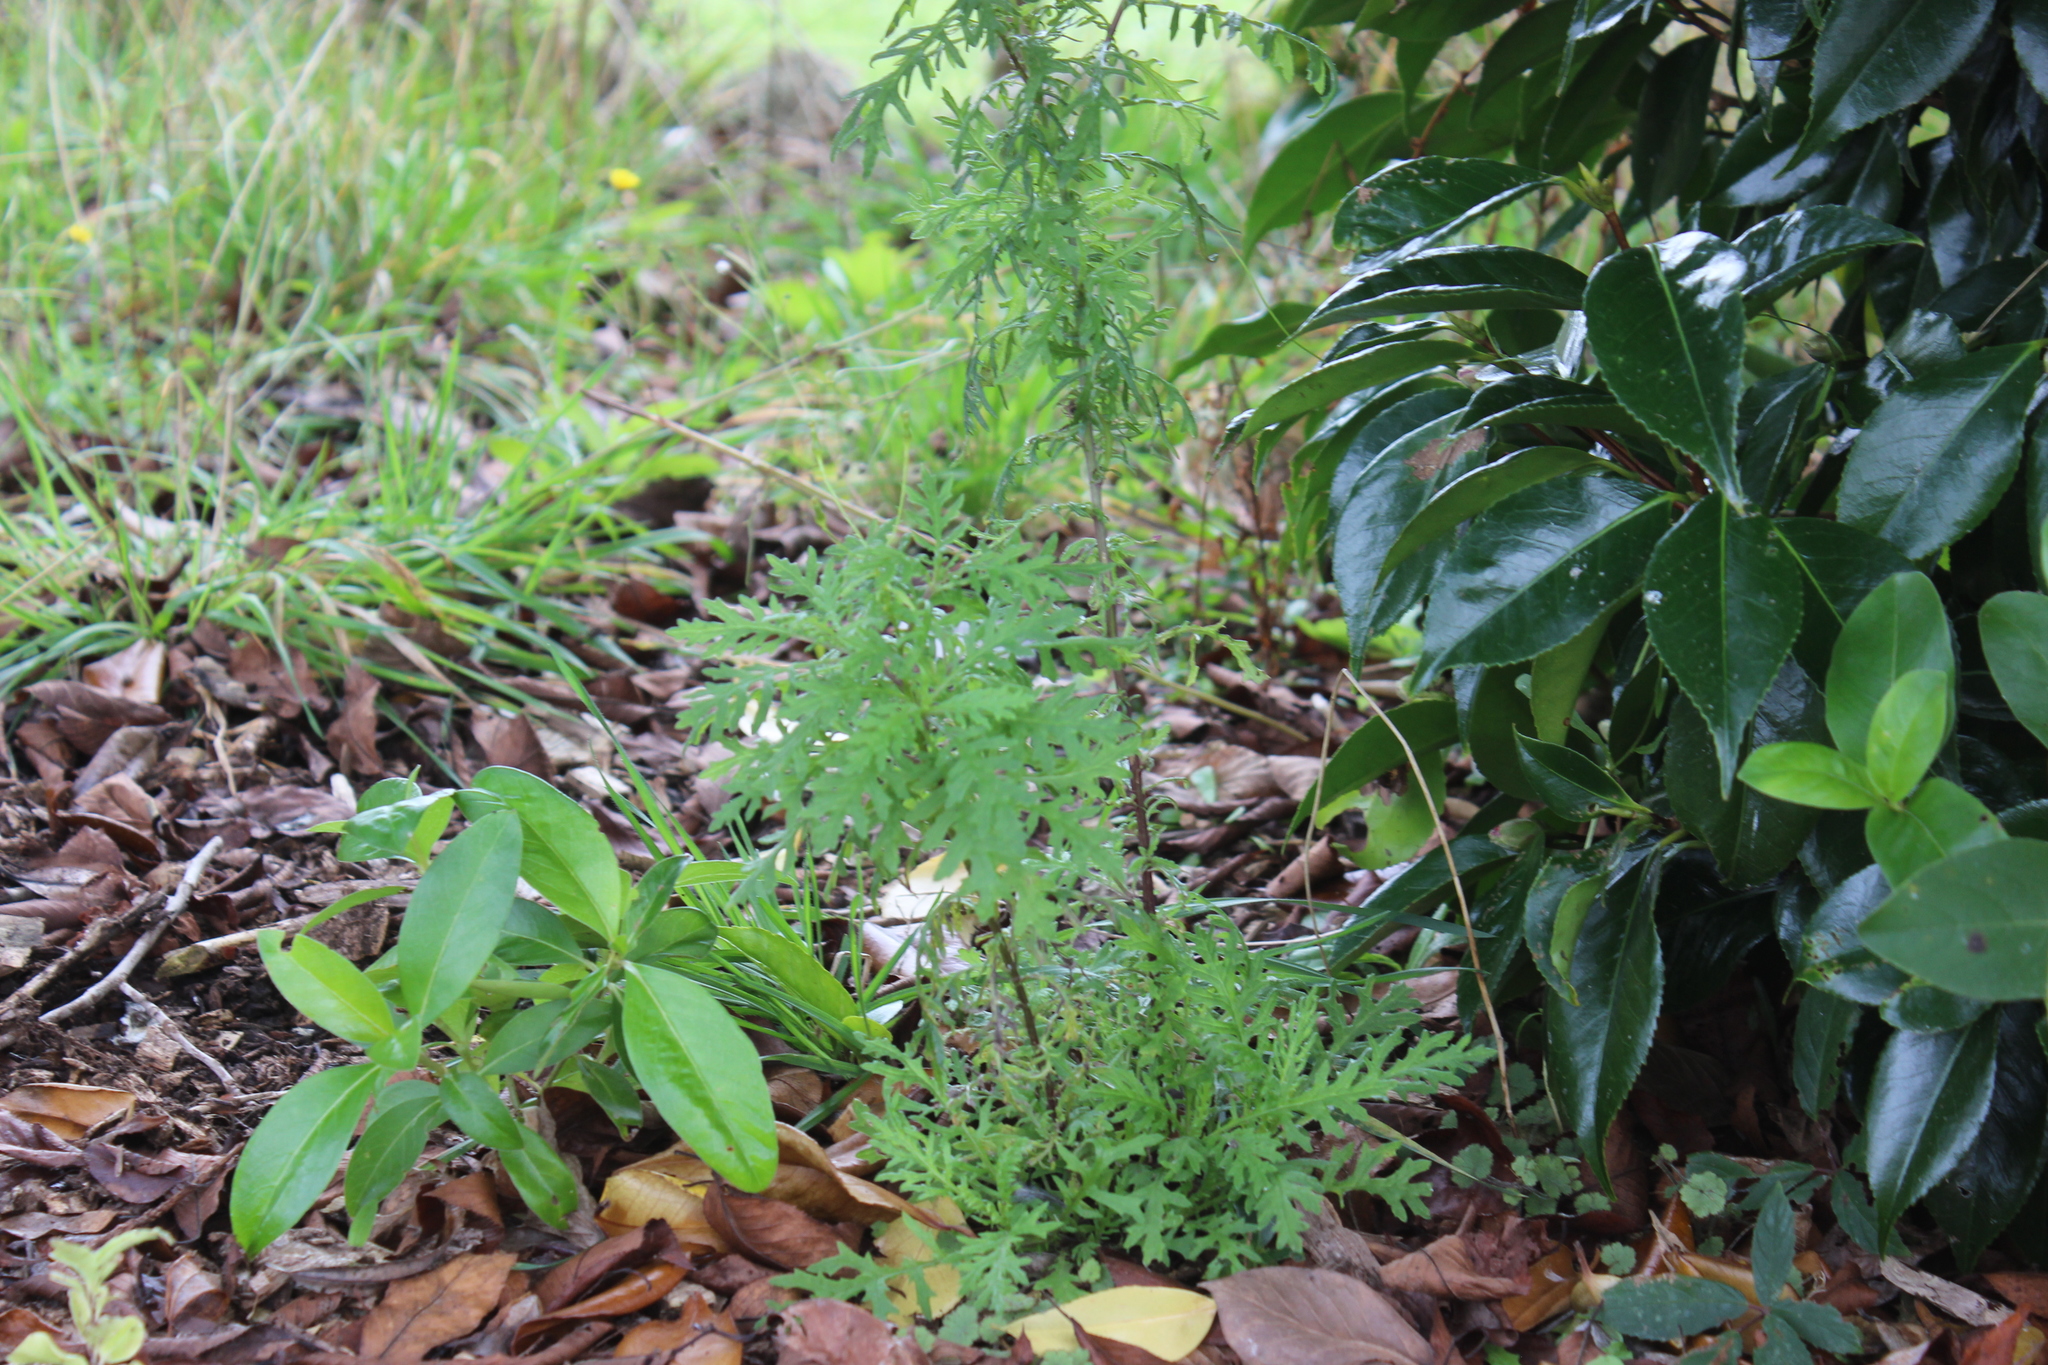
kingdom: Plantae
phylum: Tracheophyta
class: Magnoliopsida
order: Asterales
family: Asteraceae
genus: Senecio
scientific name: Senecio bipinnatisectus
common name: Australian fireweed
